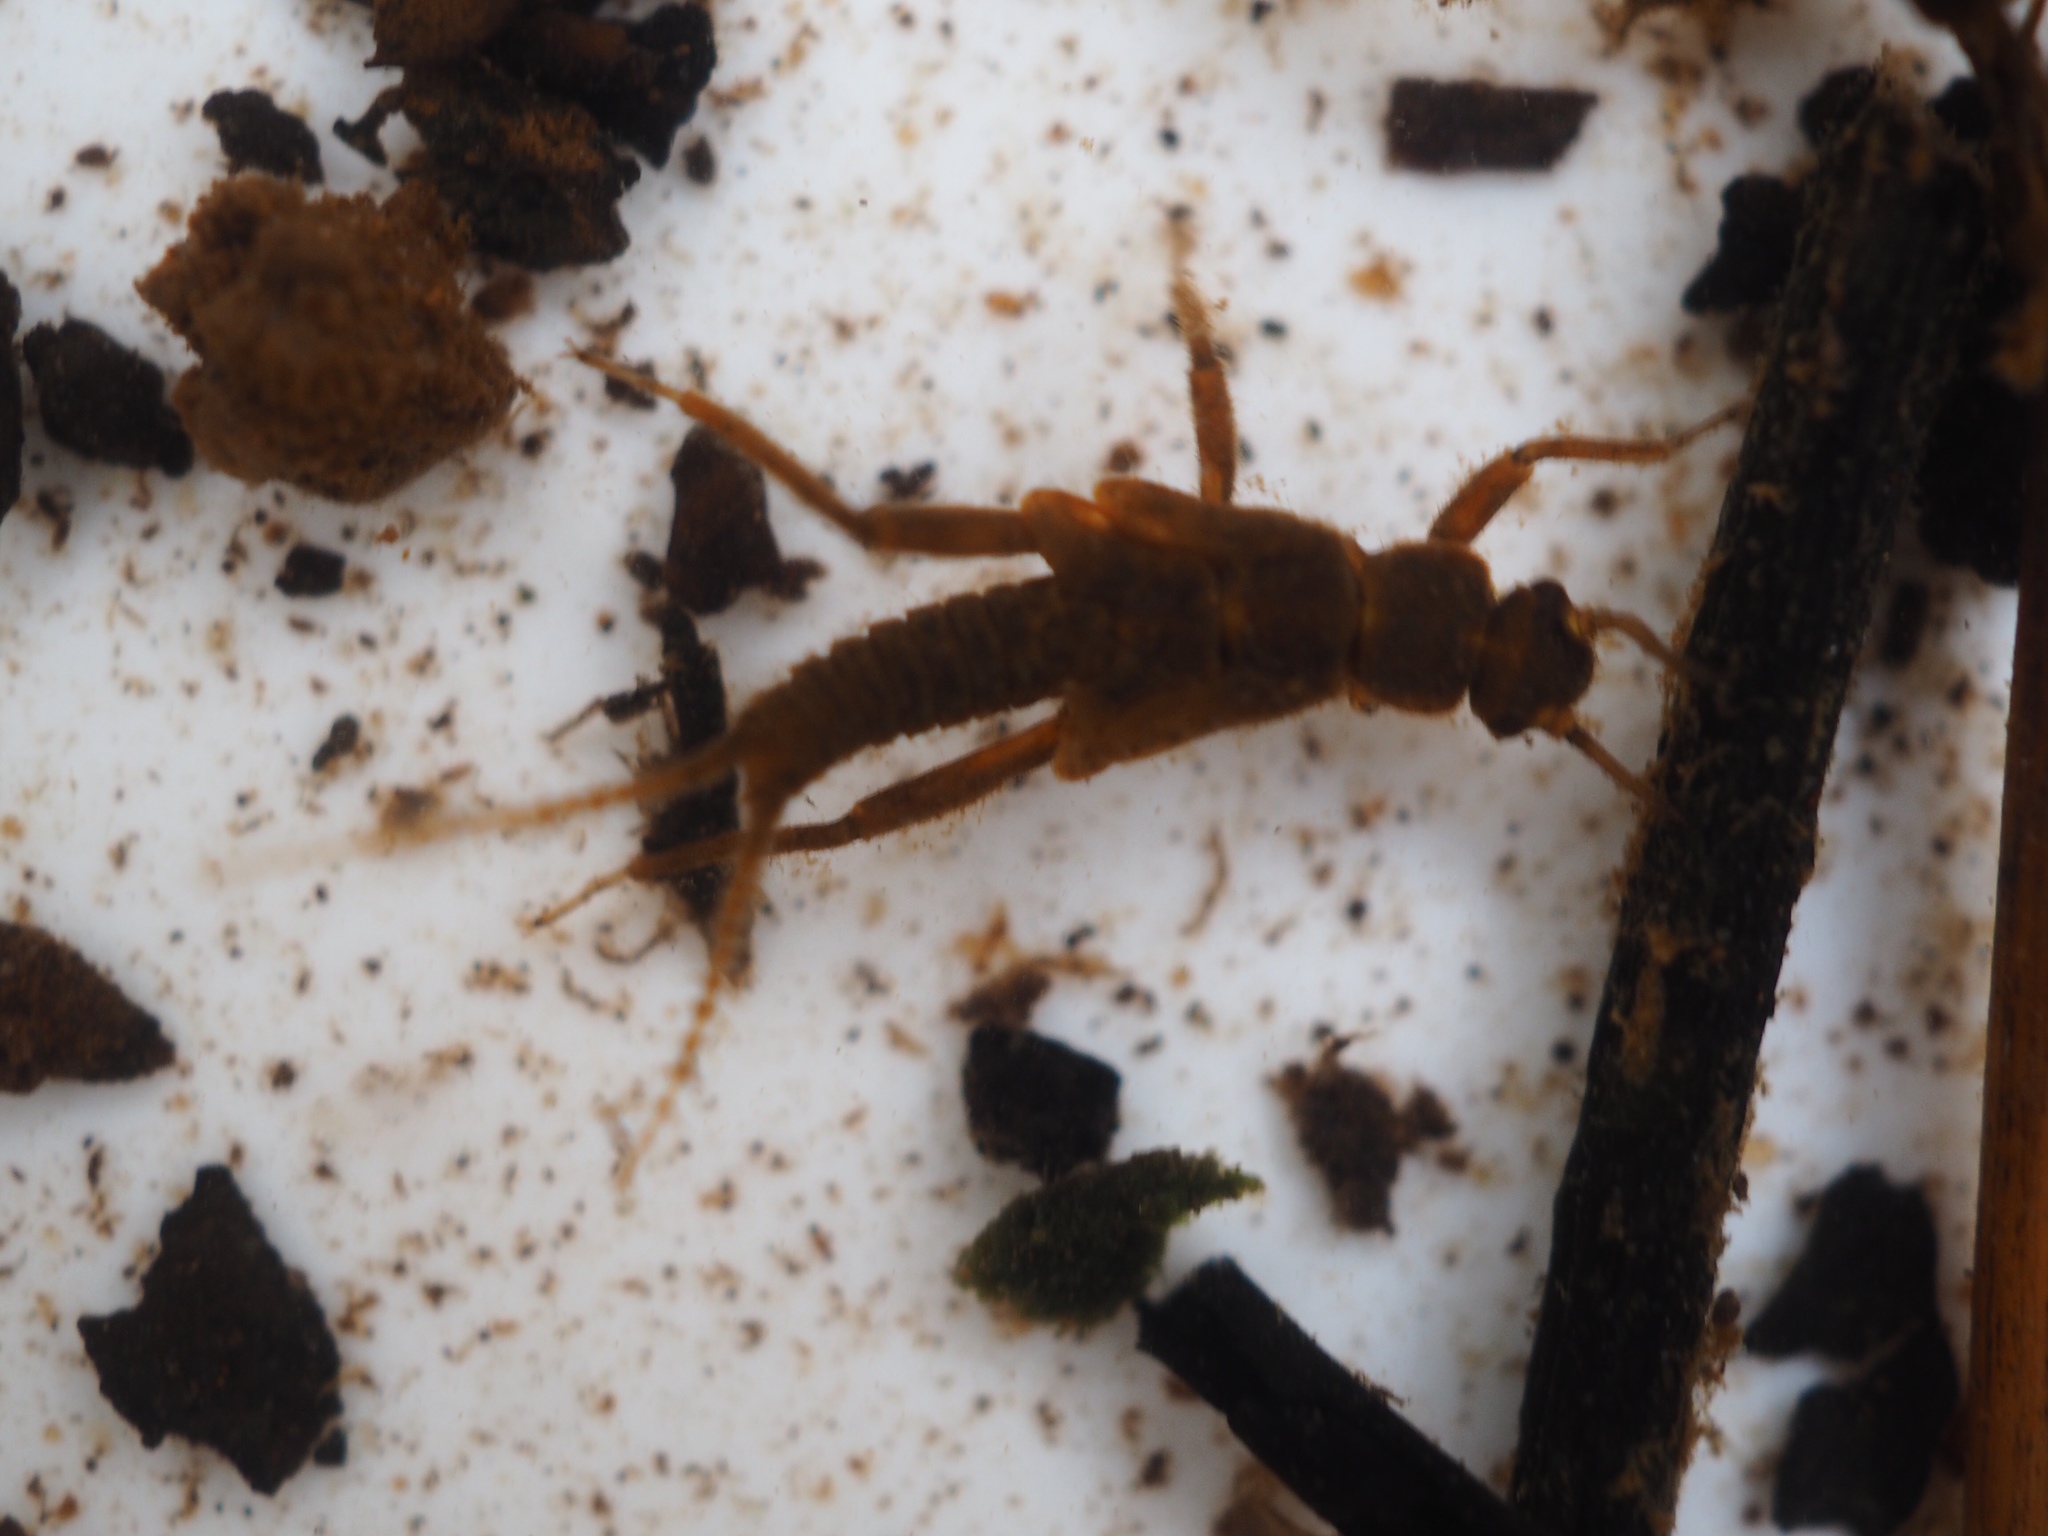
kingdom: Animalia
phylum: Arthropoda
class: Insecta
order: Plecoptera
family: Nemouridae
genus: Amphinemura
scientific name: Amphinemura standfussi
